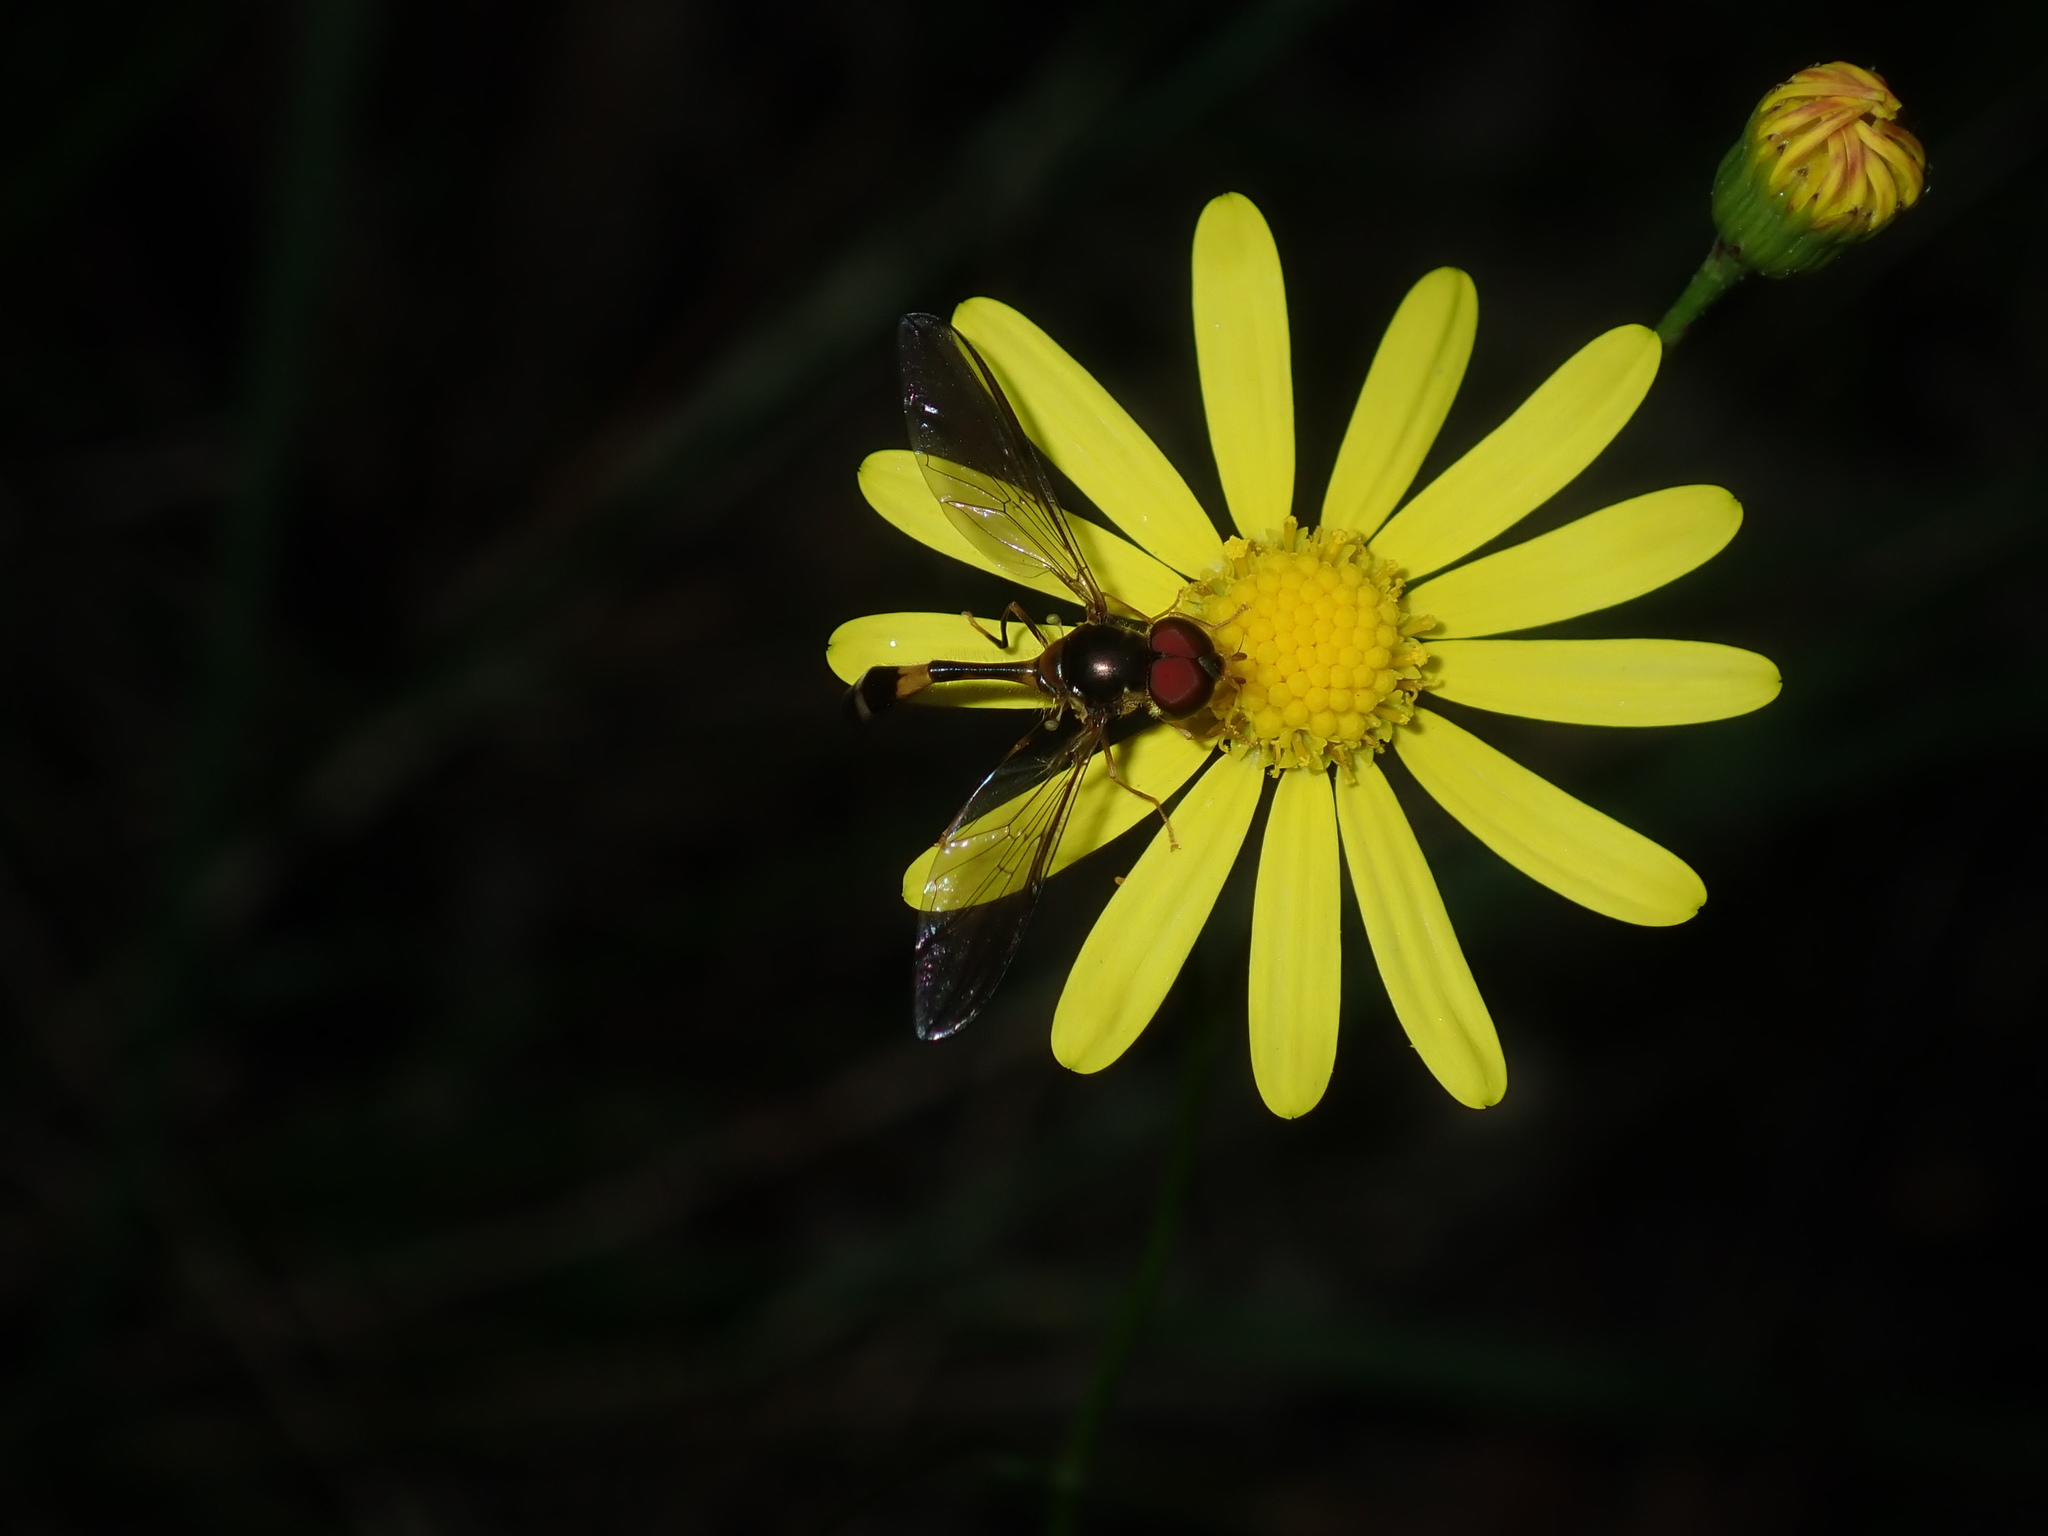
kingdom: Animalia
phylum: Arthropoda
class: Insecta
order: Diptera
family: Syrphidae
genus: Asiobaccha
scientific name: Asiobaccha notofasciata
